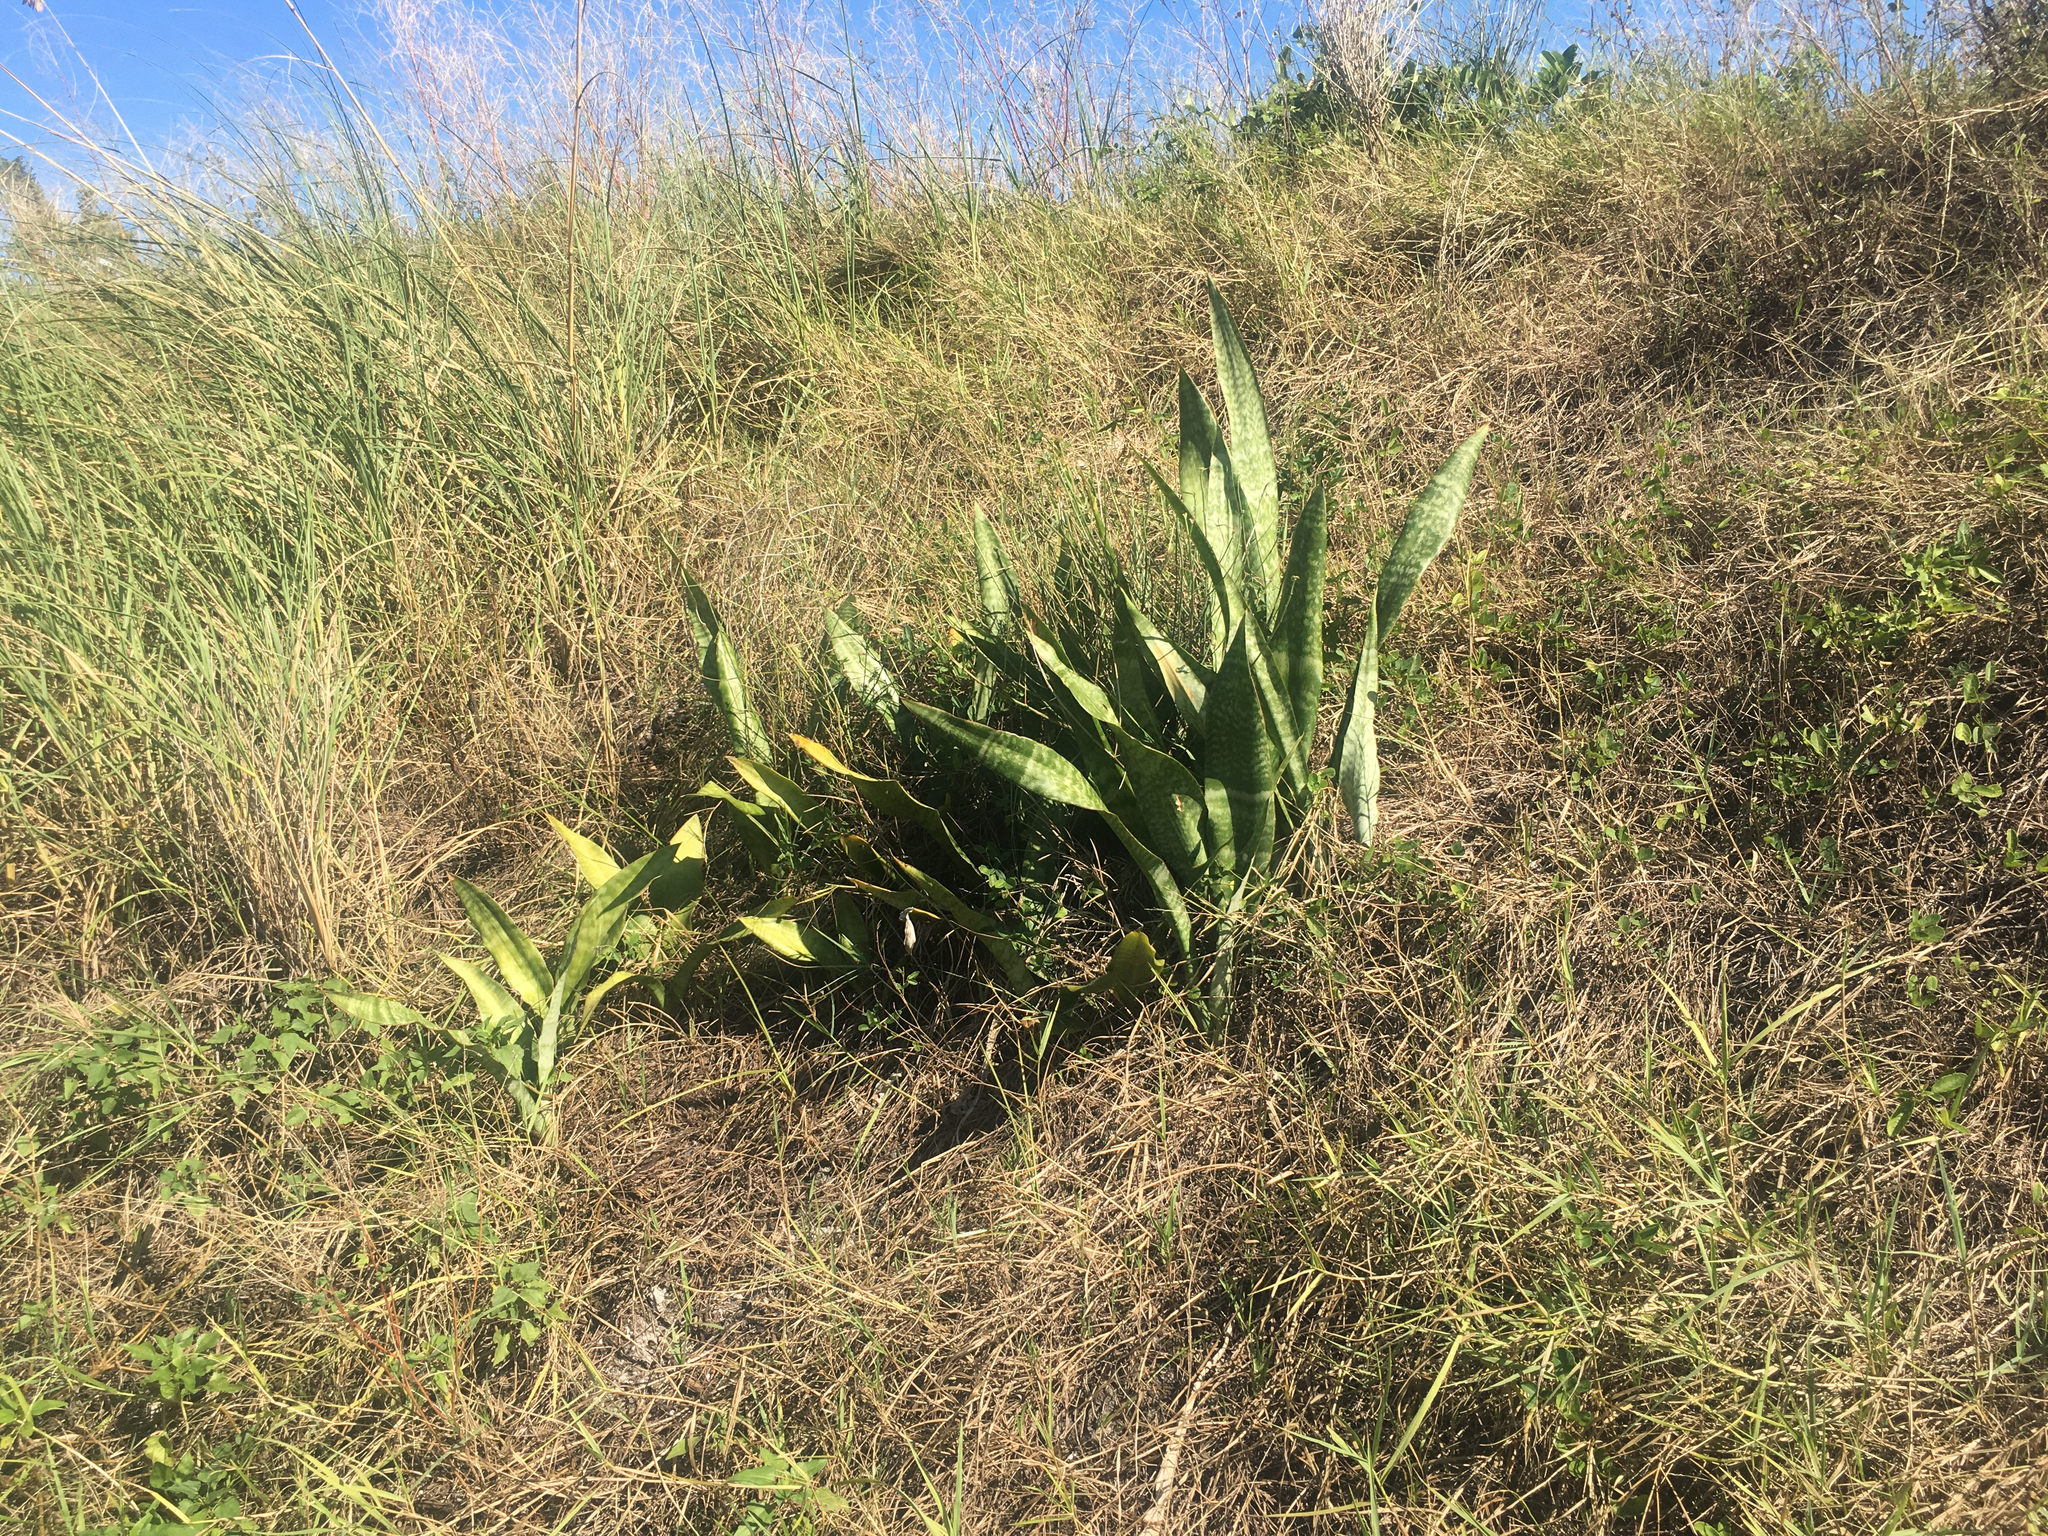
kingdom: Plantae
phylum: Tracheophyta
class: Liliopsida
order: Asparagales
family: Asparagaceae
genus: Dracaena
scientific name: Dracaena hyacinthoides
